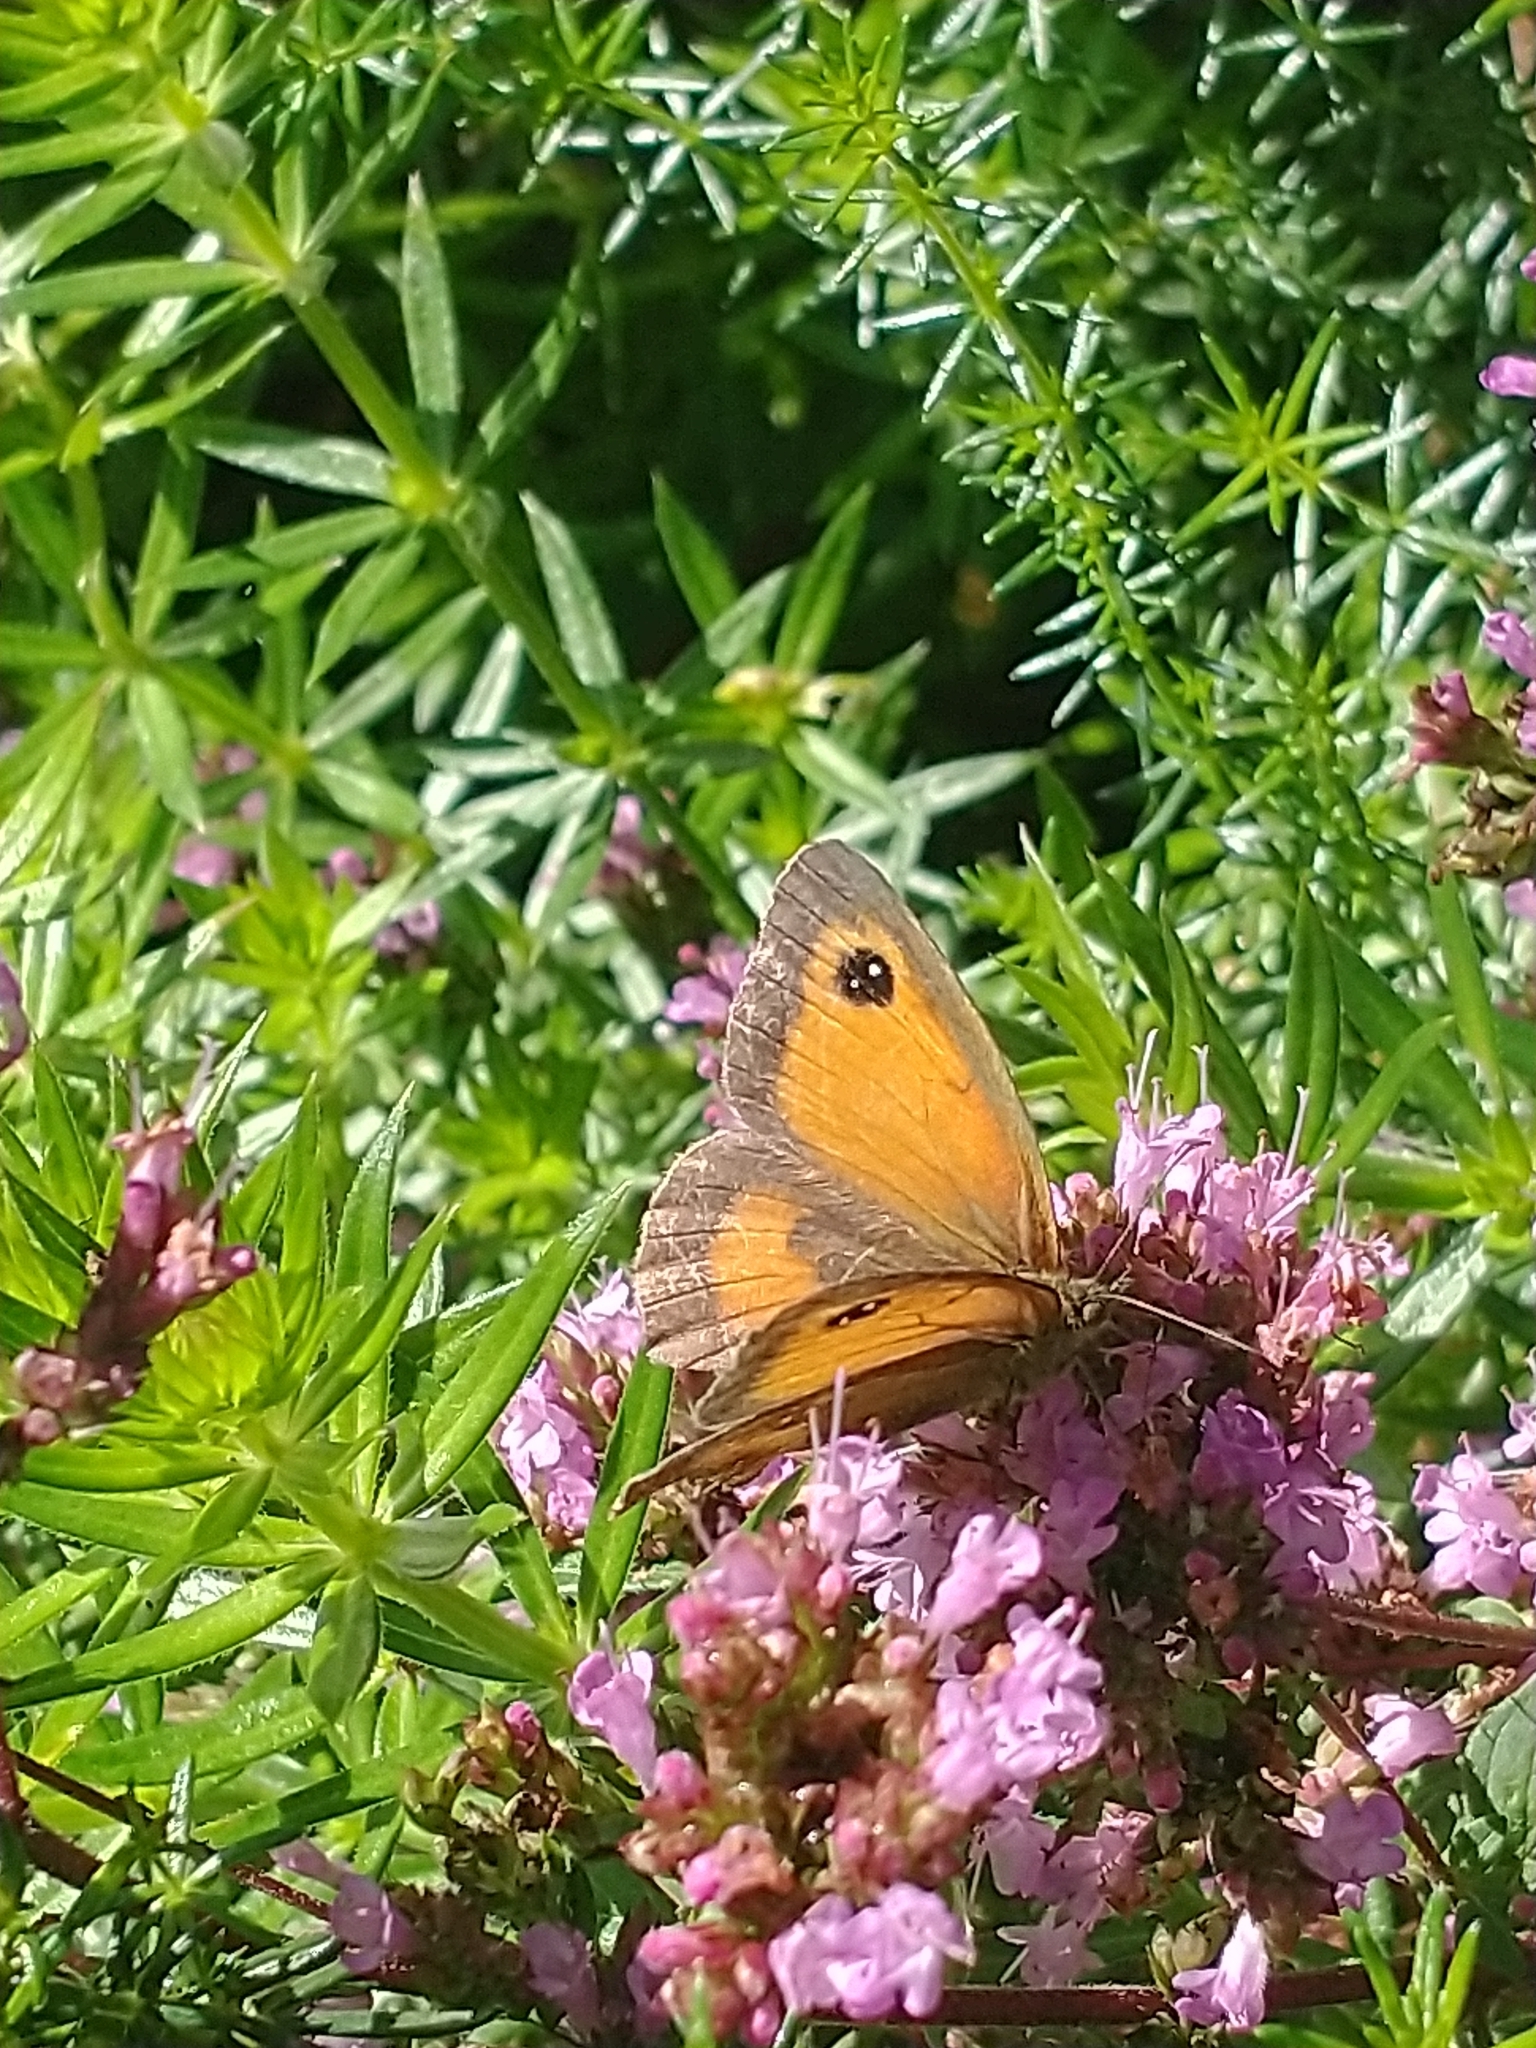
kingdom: Animalia
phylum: Arthropoda
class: Insecta
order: Lepidoptera
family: Nymphalidae
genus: Pyronia
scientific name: Pyronia tithonus
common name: Gatekeeper
